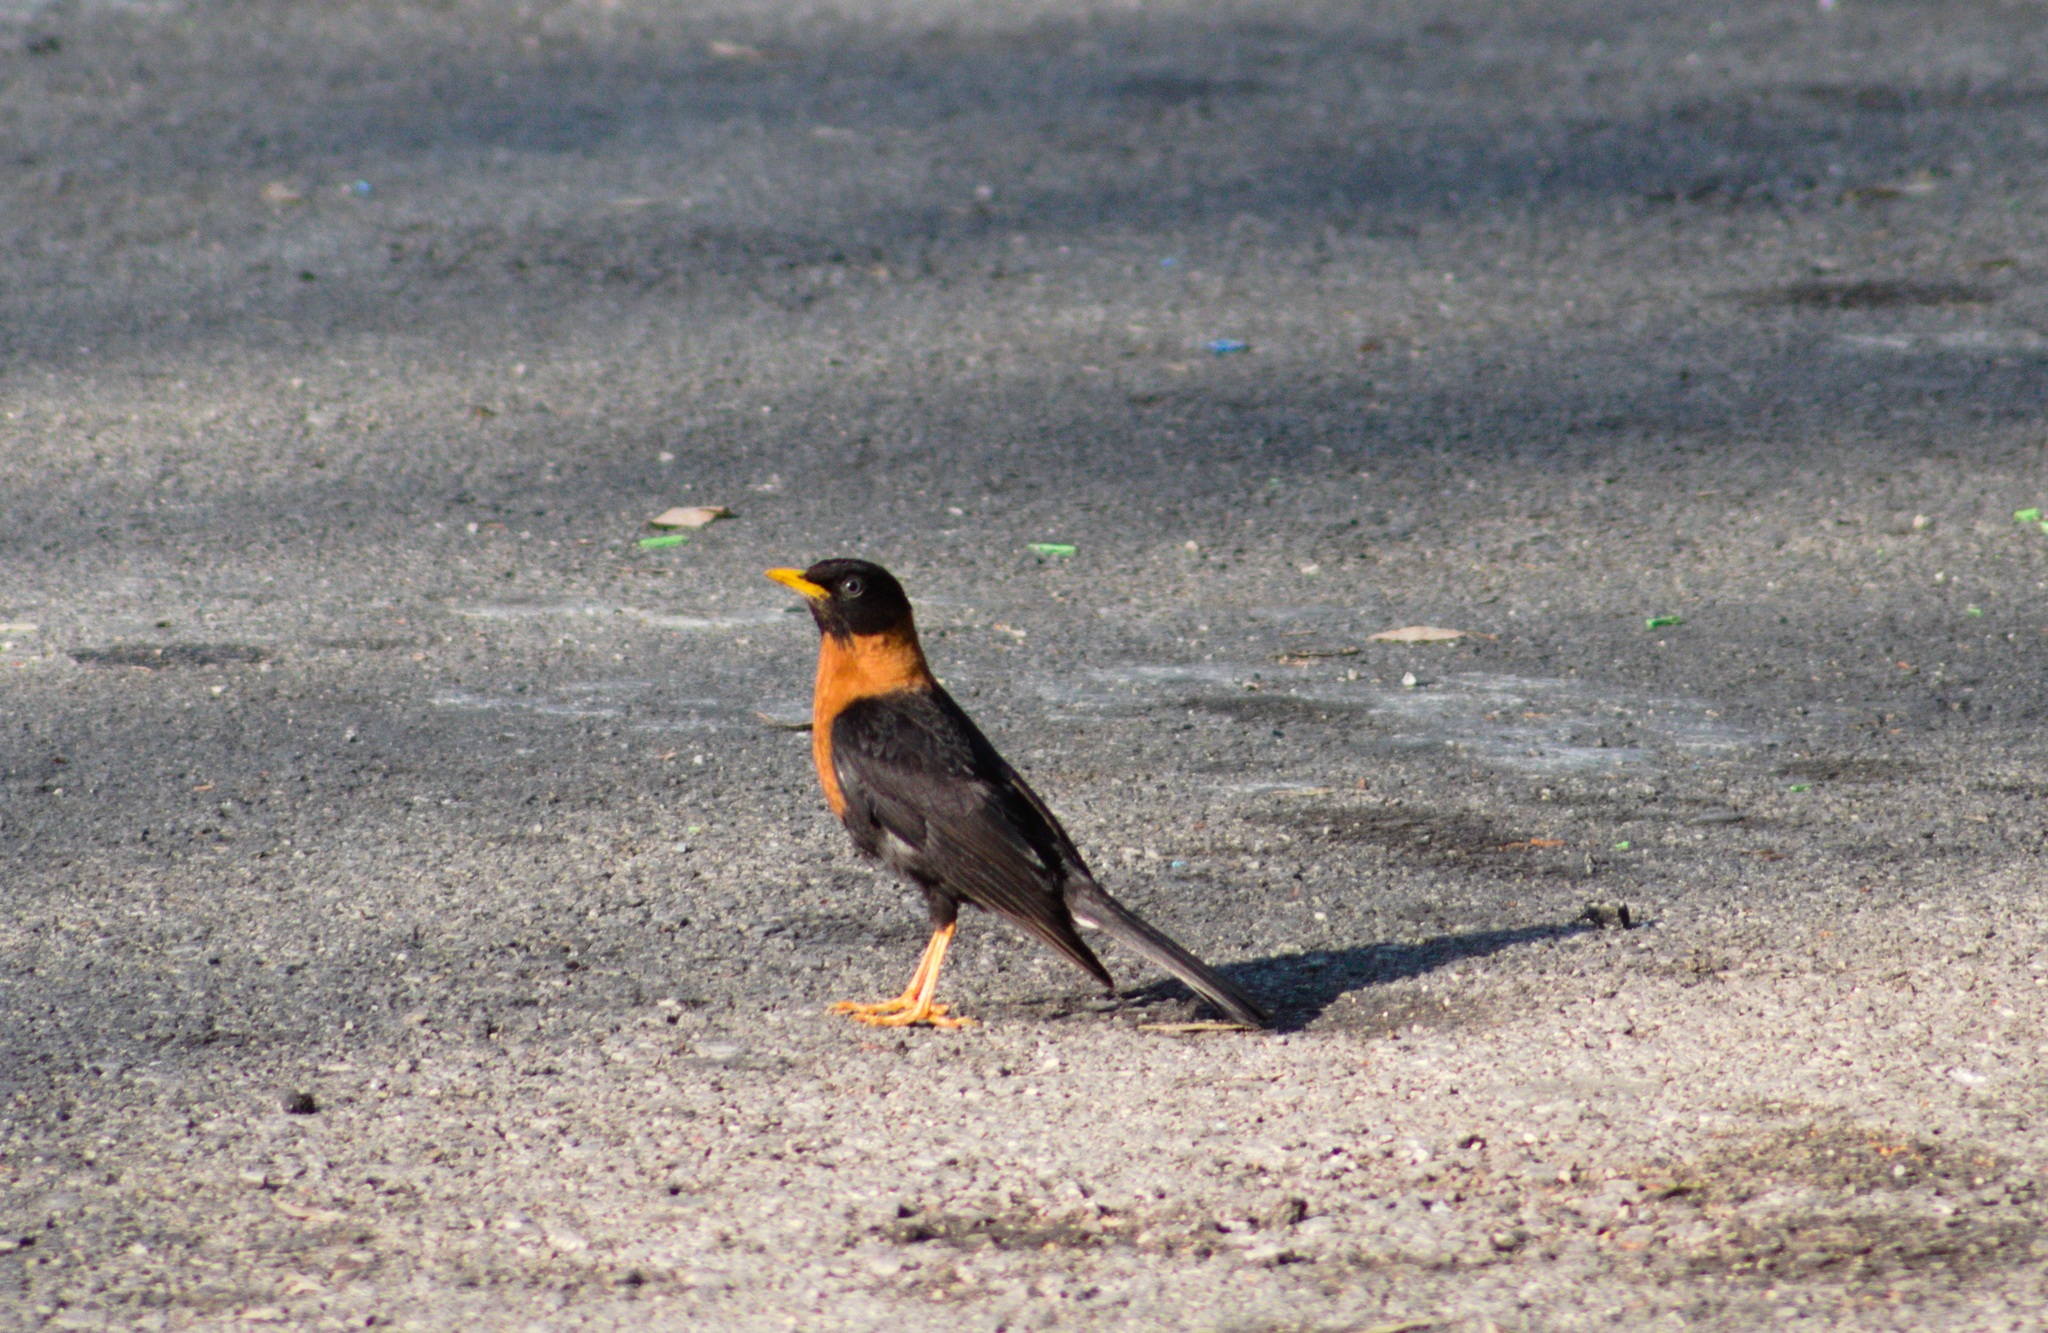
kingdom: Animalia
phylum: Chordata
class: Aves
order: Passeriformes
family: Turdidae
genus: Turdus
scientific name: Turdus rufitorques
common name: Rufous-collared thrush
